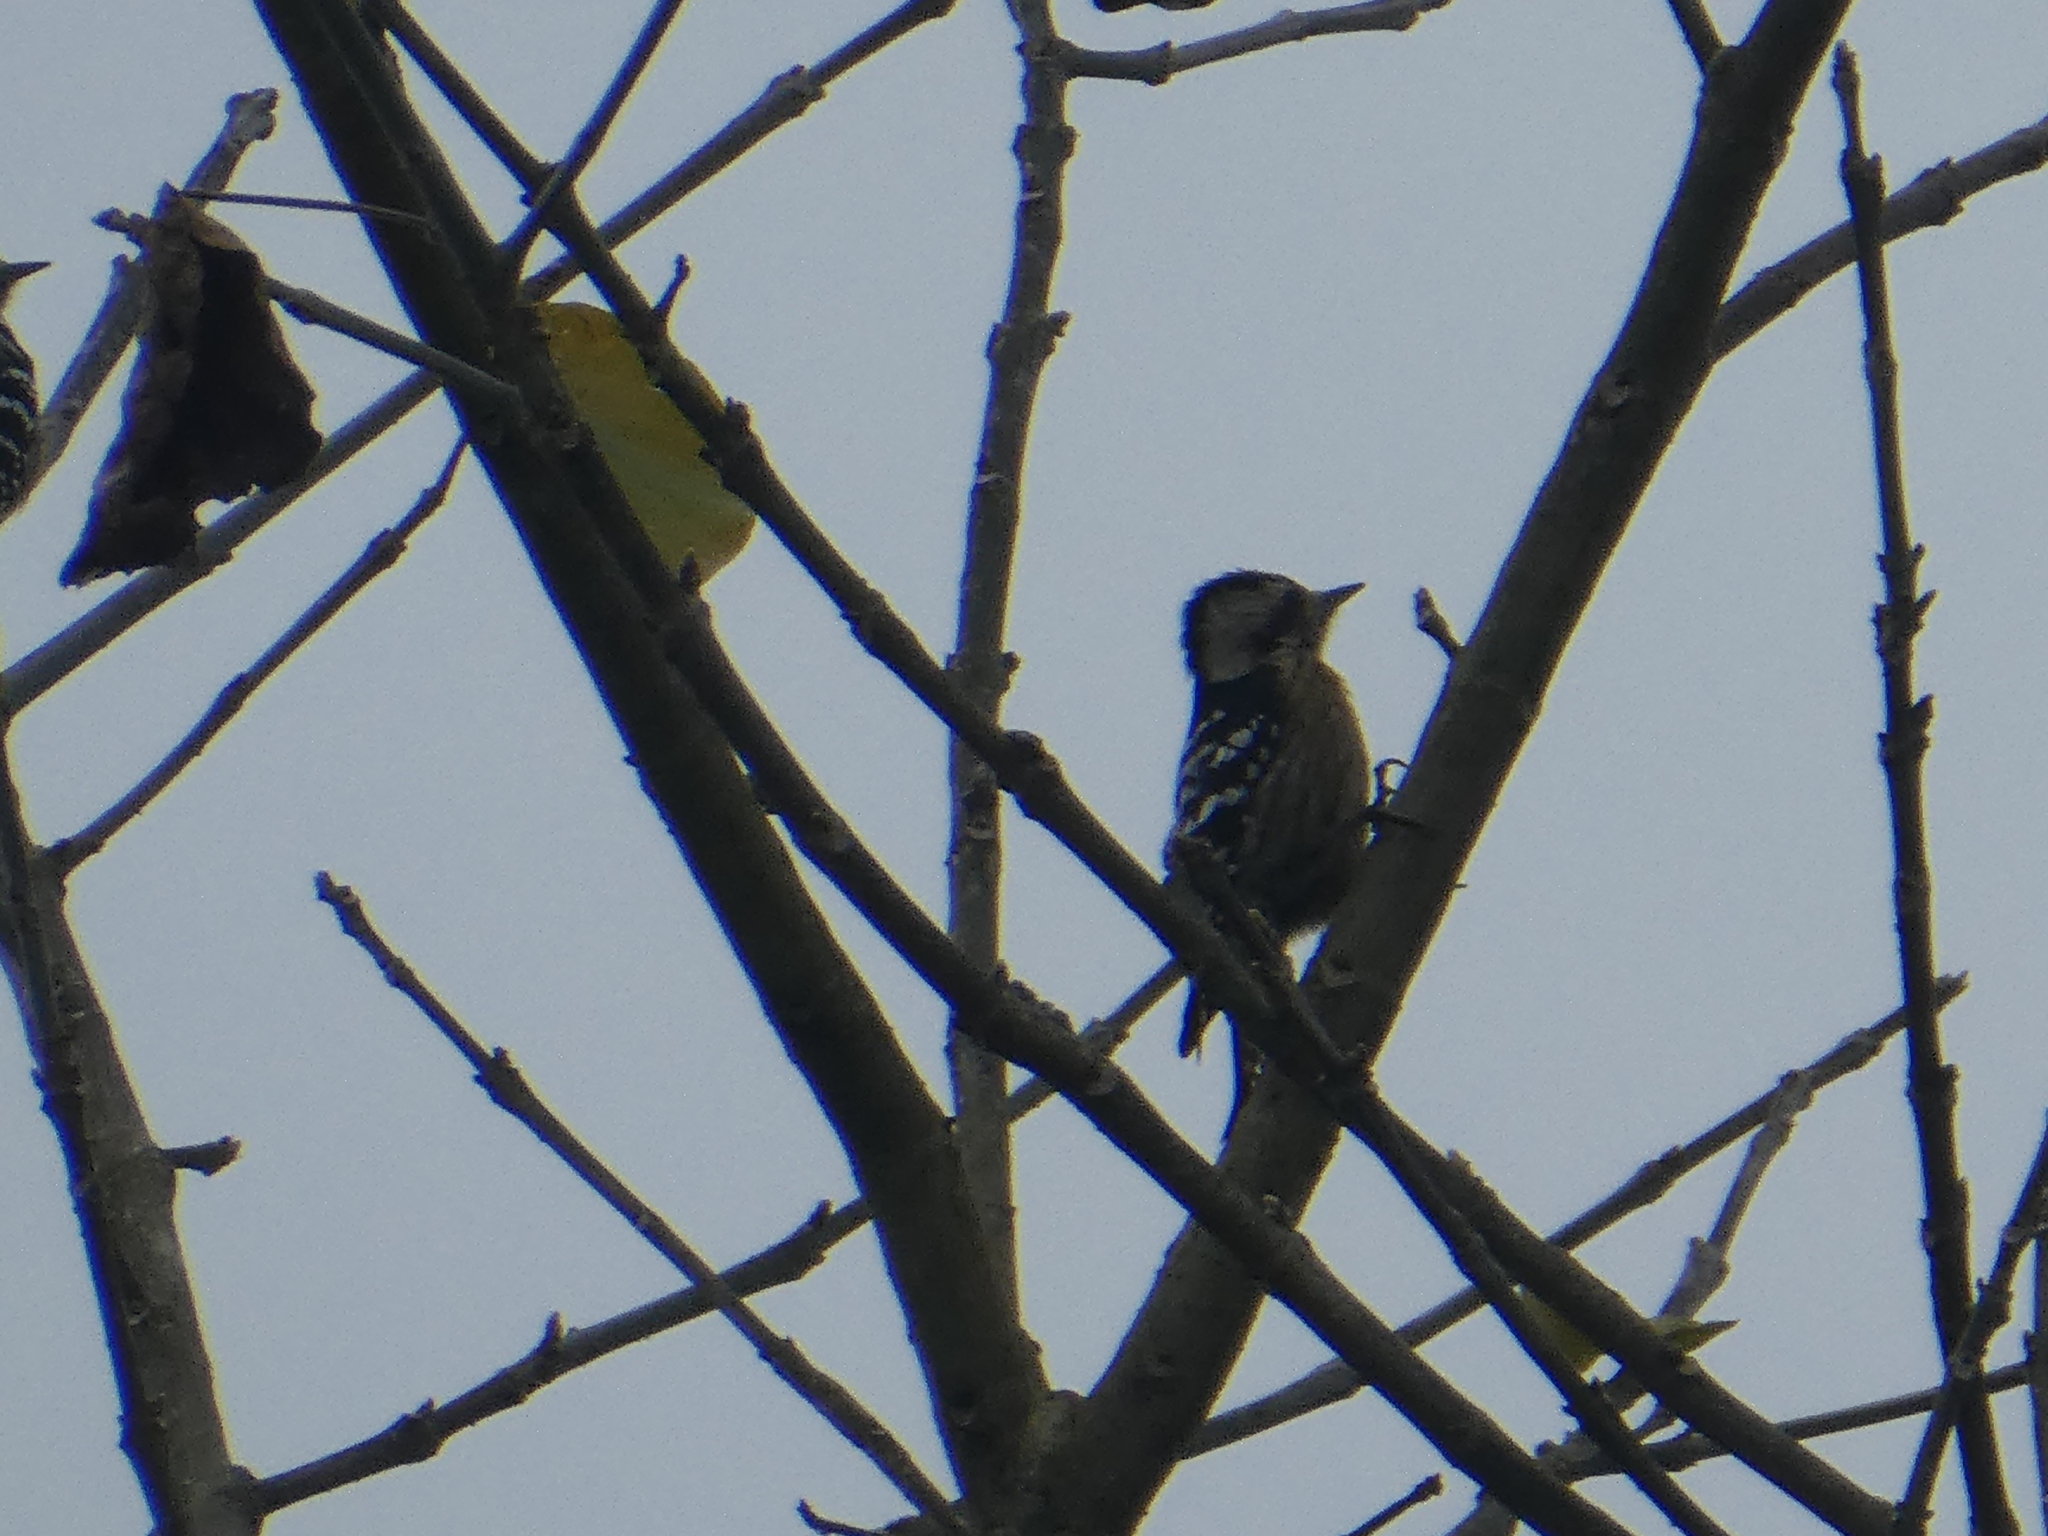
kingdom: Animalia
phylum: Chordata
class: Aves
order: Piciformes
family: Picidae
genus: Yungipicus
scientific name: Yungipicus canicapillus
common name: Grey-capped pygmy woodpecker
